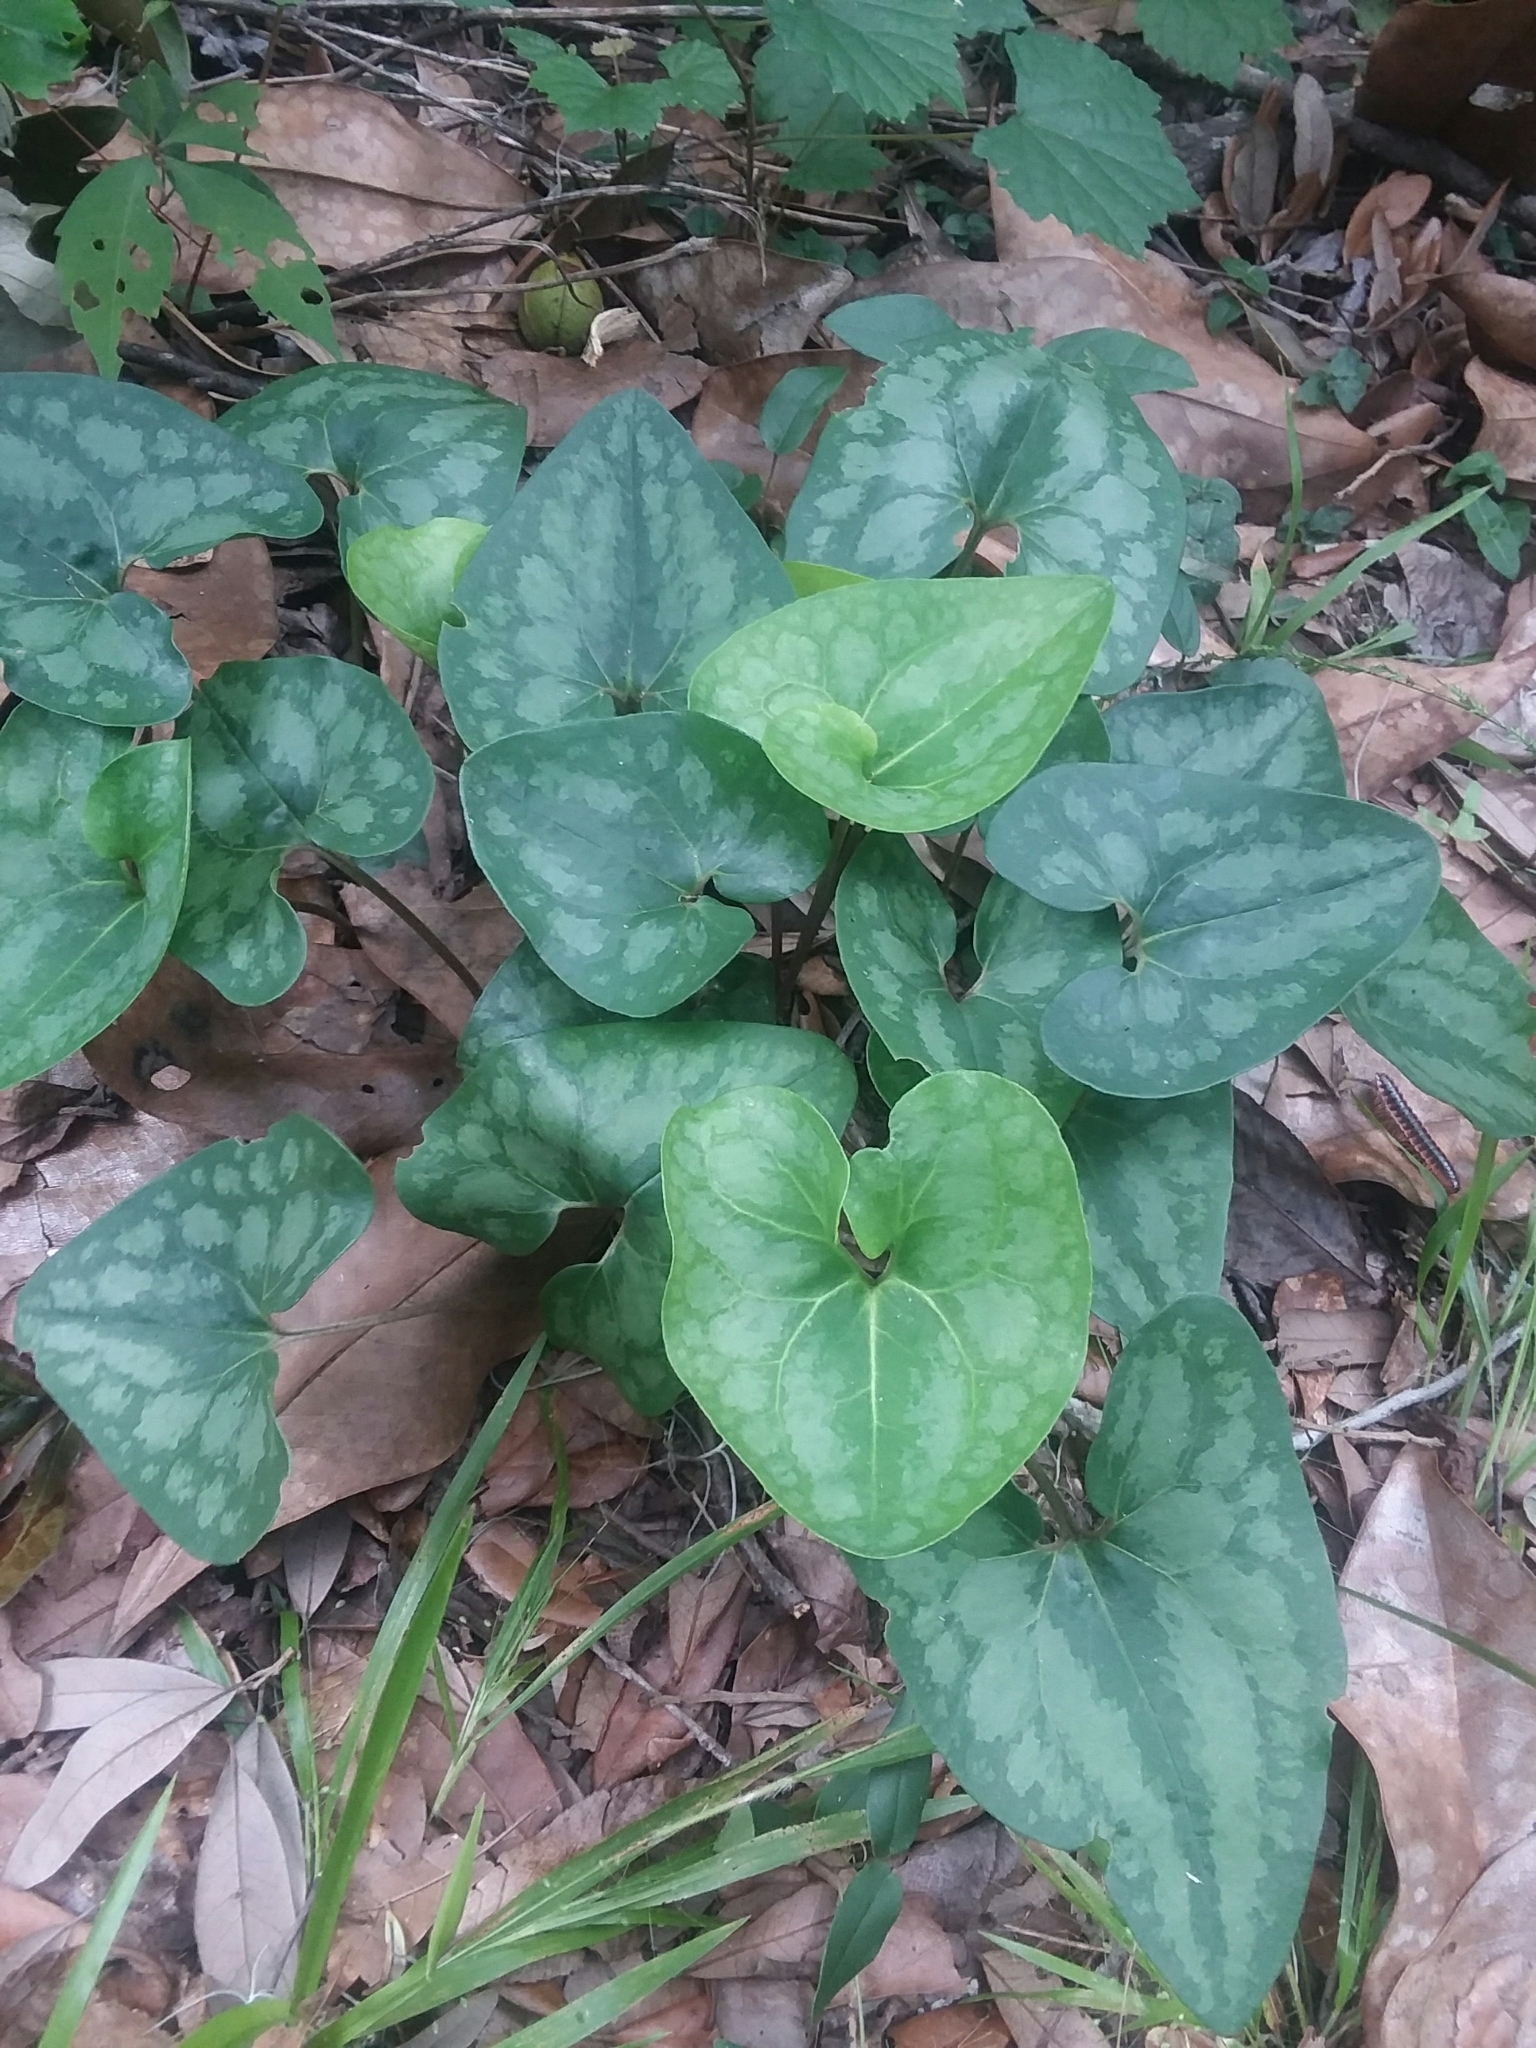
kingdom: Plantae
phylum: Tracheophyta
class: Magnoliopsida
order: Piperales
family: Aristolochiaceae
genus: Hexastylis
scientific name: Hexastylis arifolia
